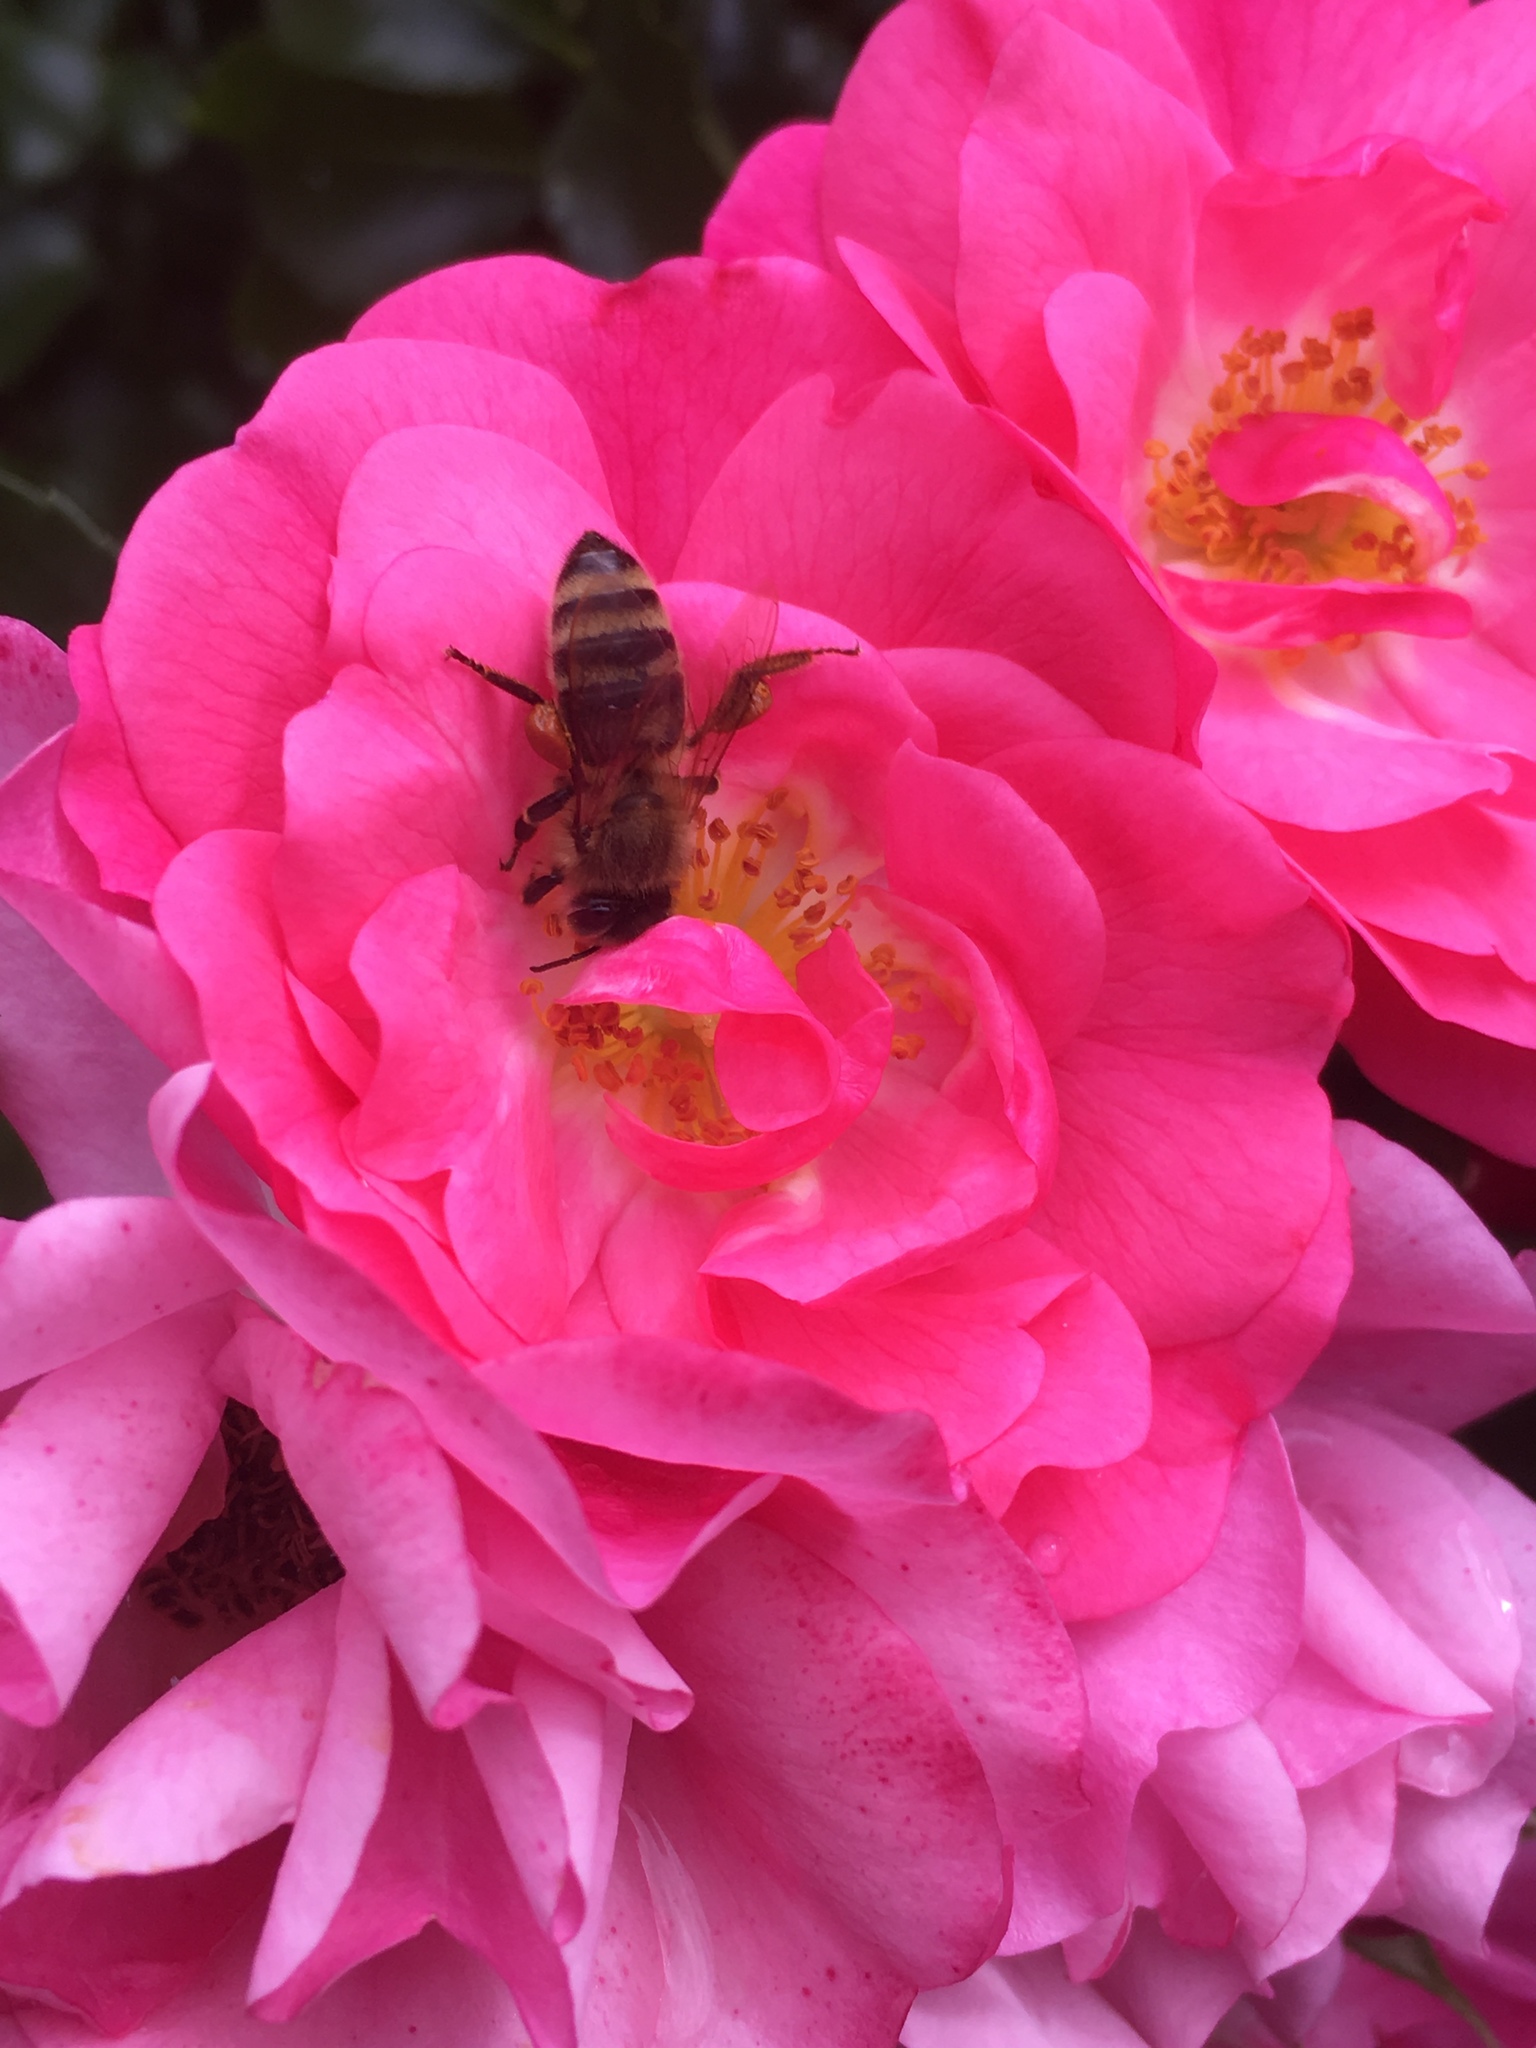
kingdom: Animalia
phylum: Arthropoda
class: Insecta
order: Hymenoptera
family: Apidae
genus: Apis
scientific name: Apis mellifera
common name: Honey bee
